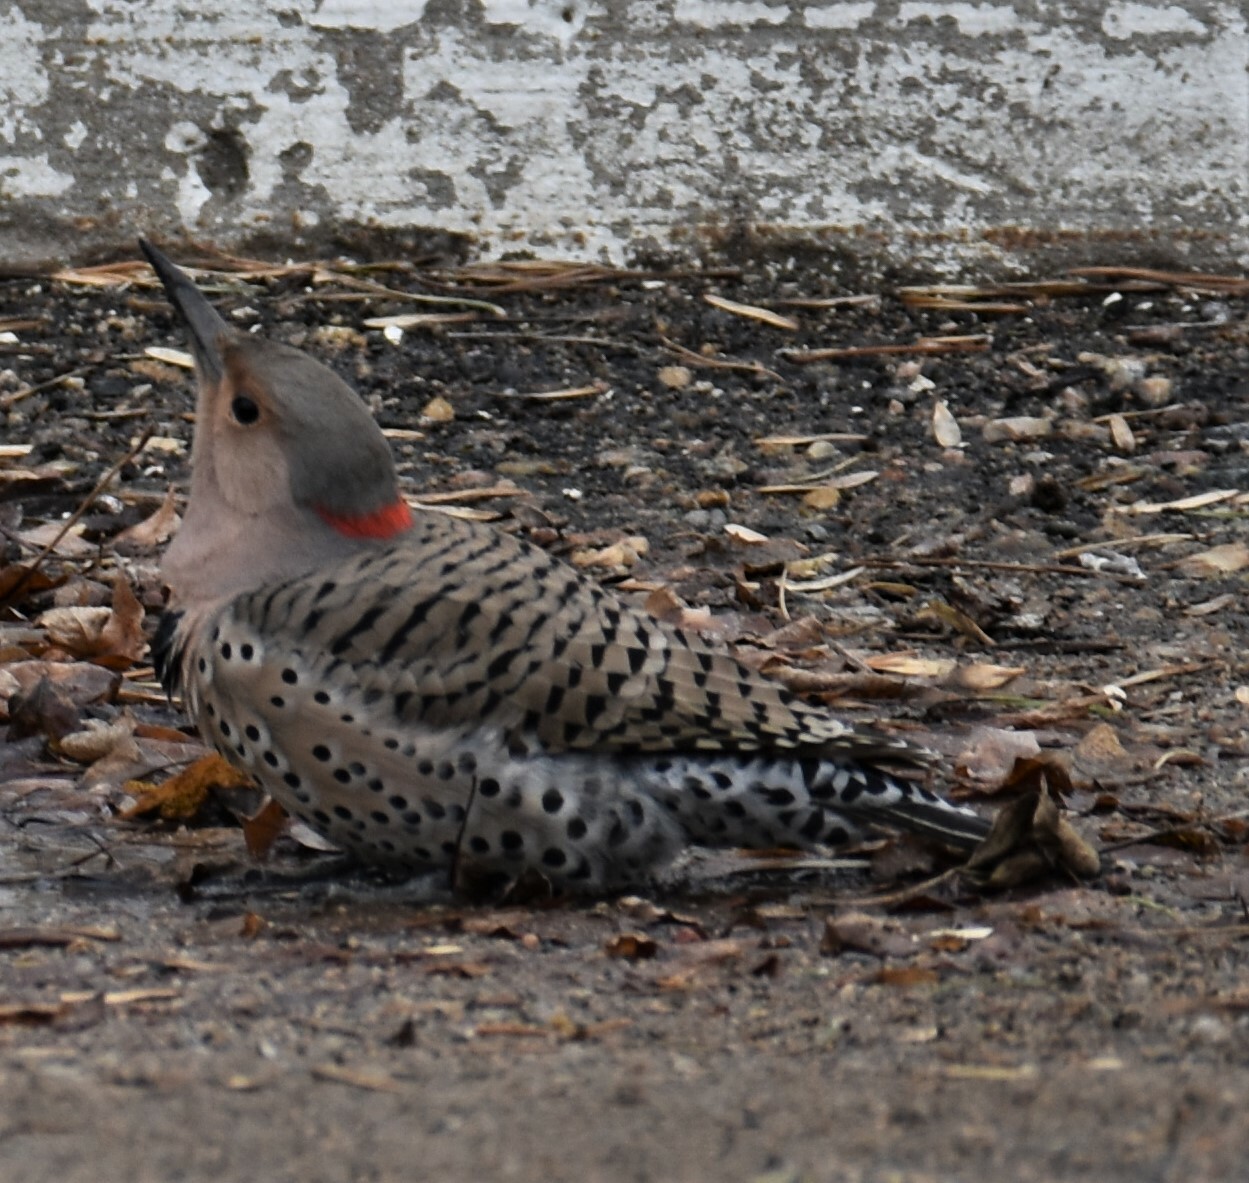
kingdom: Animalia
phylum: Chordata
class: Aves
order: Piciformes
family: Picidae
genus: Colaptes
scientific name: Colaptes auratus
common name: Northern flicker
